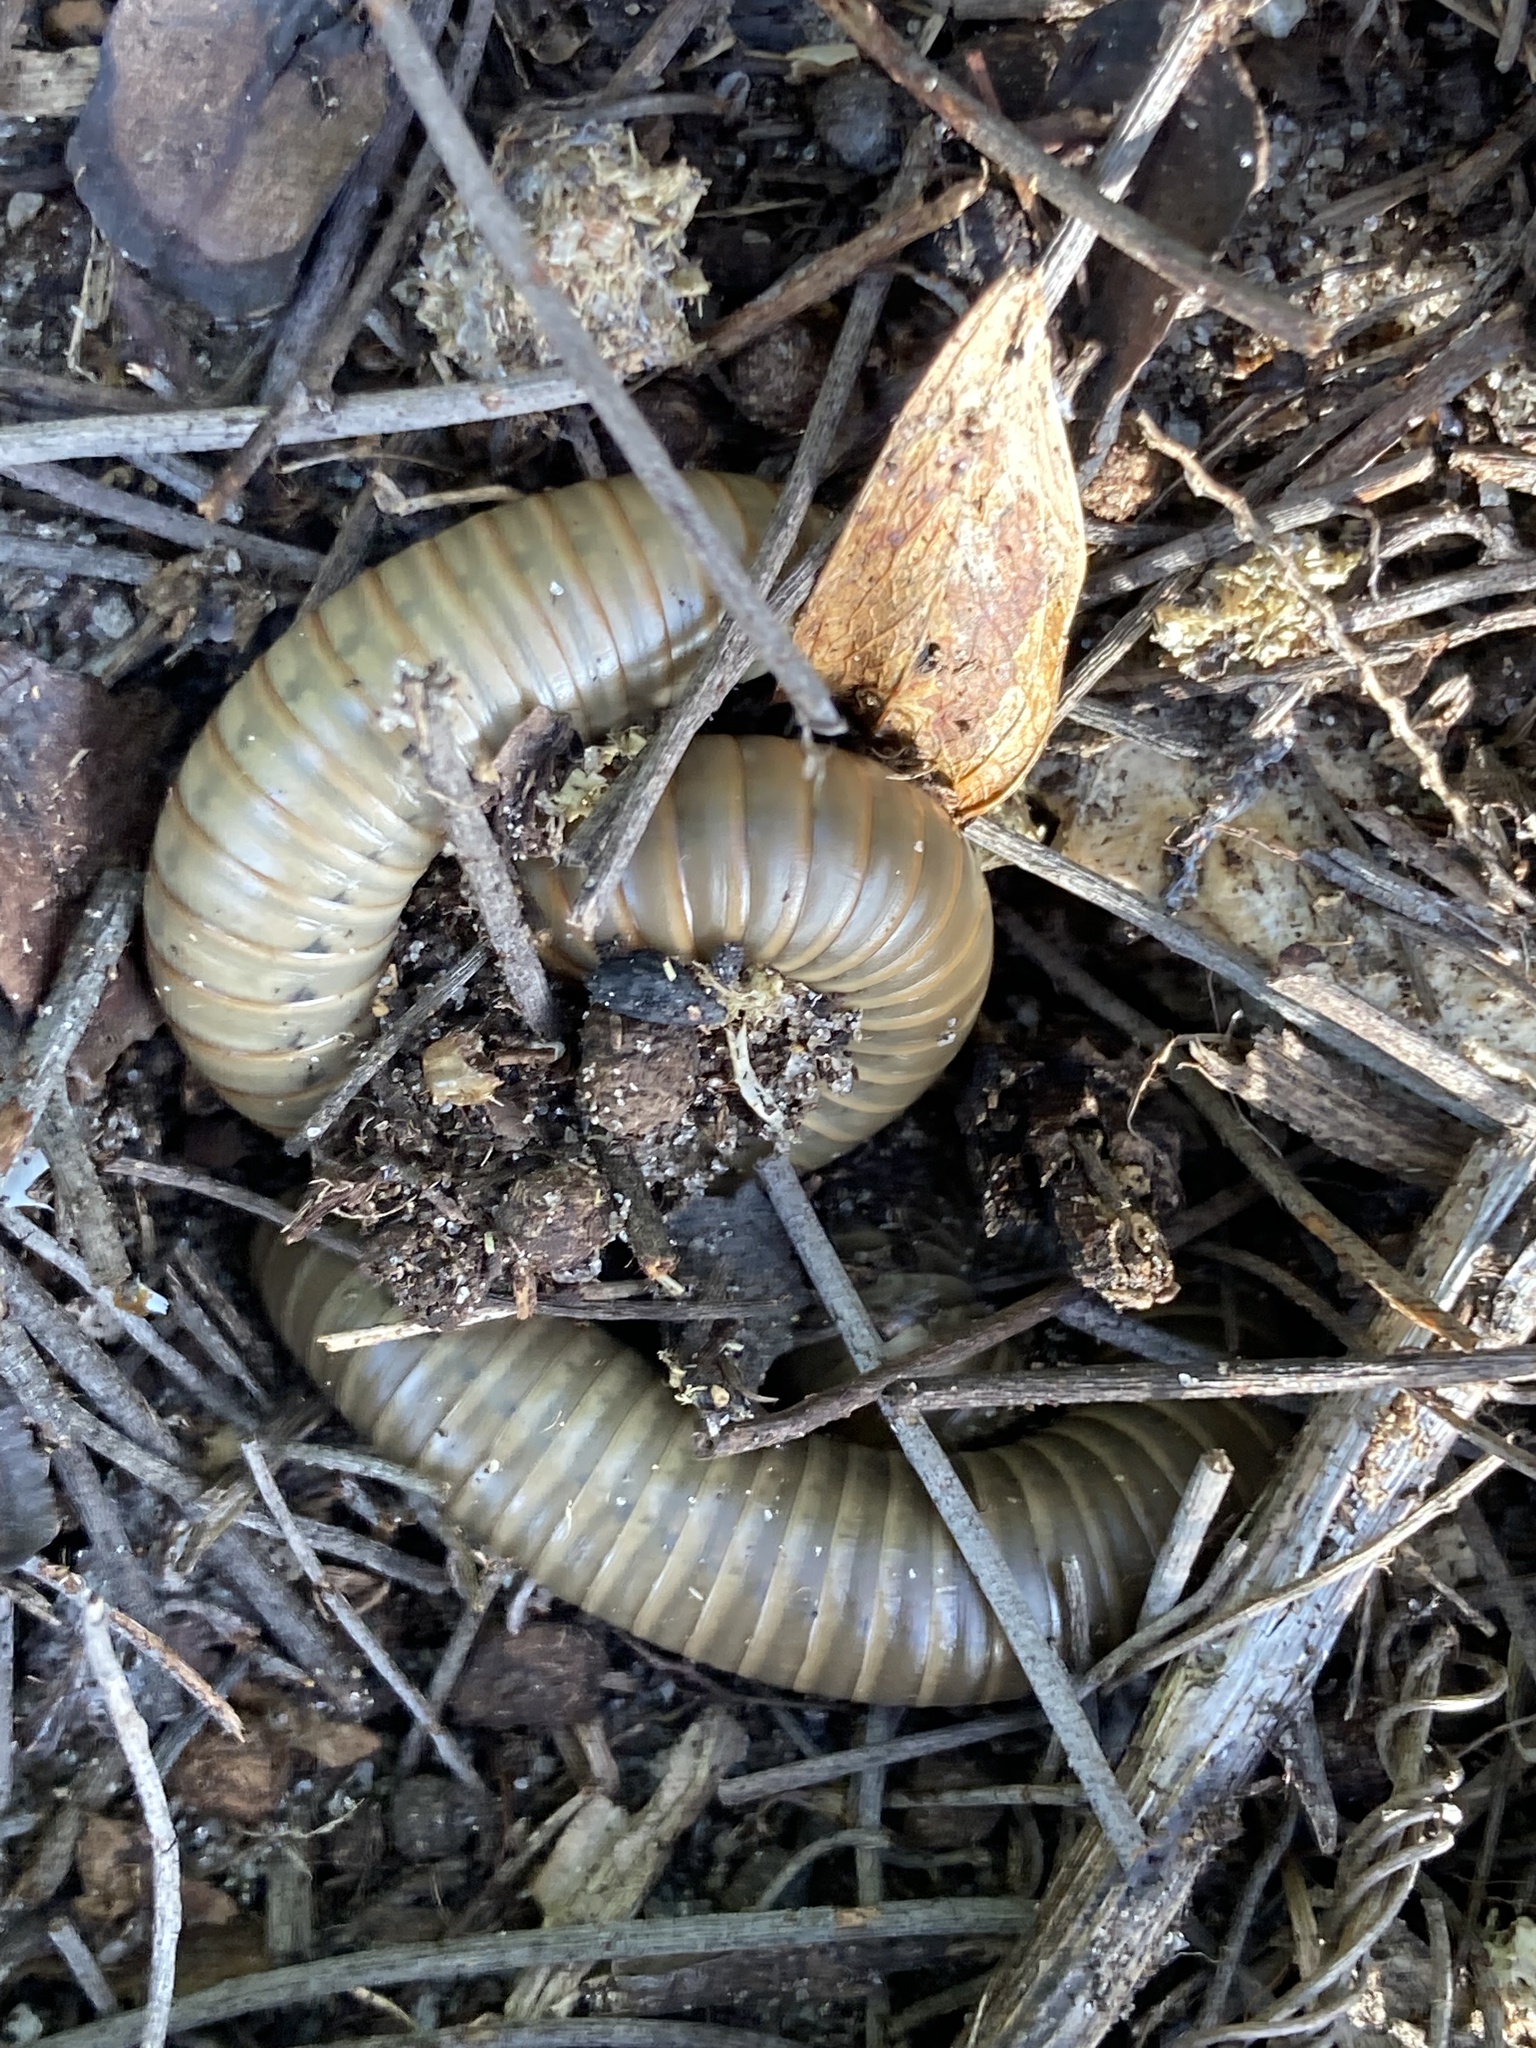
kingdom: Animalia
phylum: Arthropoda
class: Diplopoda
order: Spirobolida
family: Spirobolidae
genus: Narceus
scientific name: Narceus gordanus
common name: Grayish-green millipede
